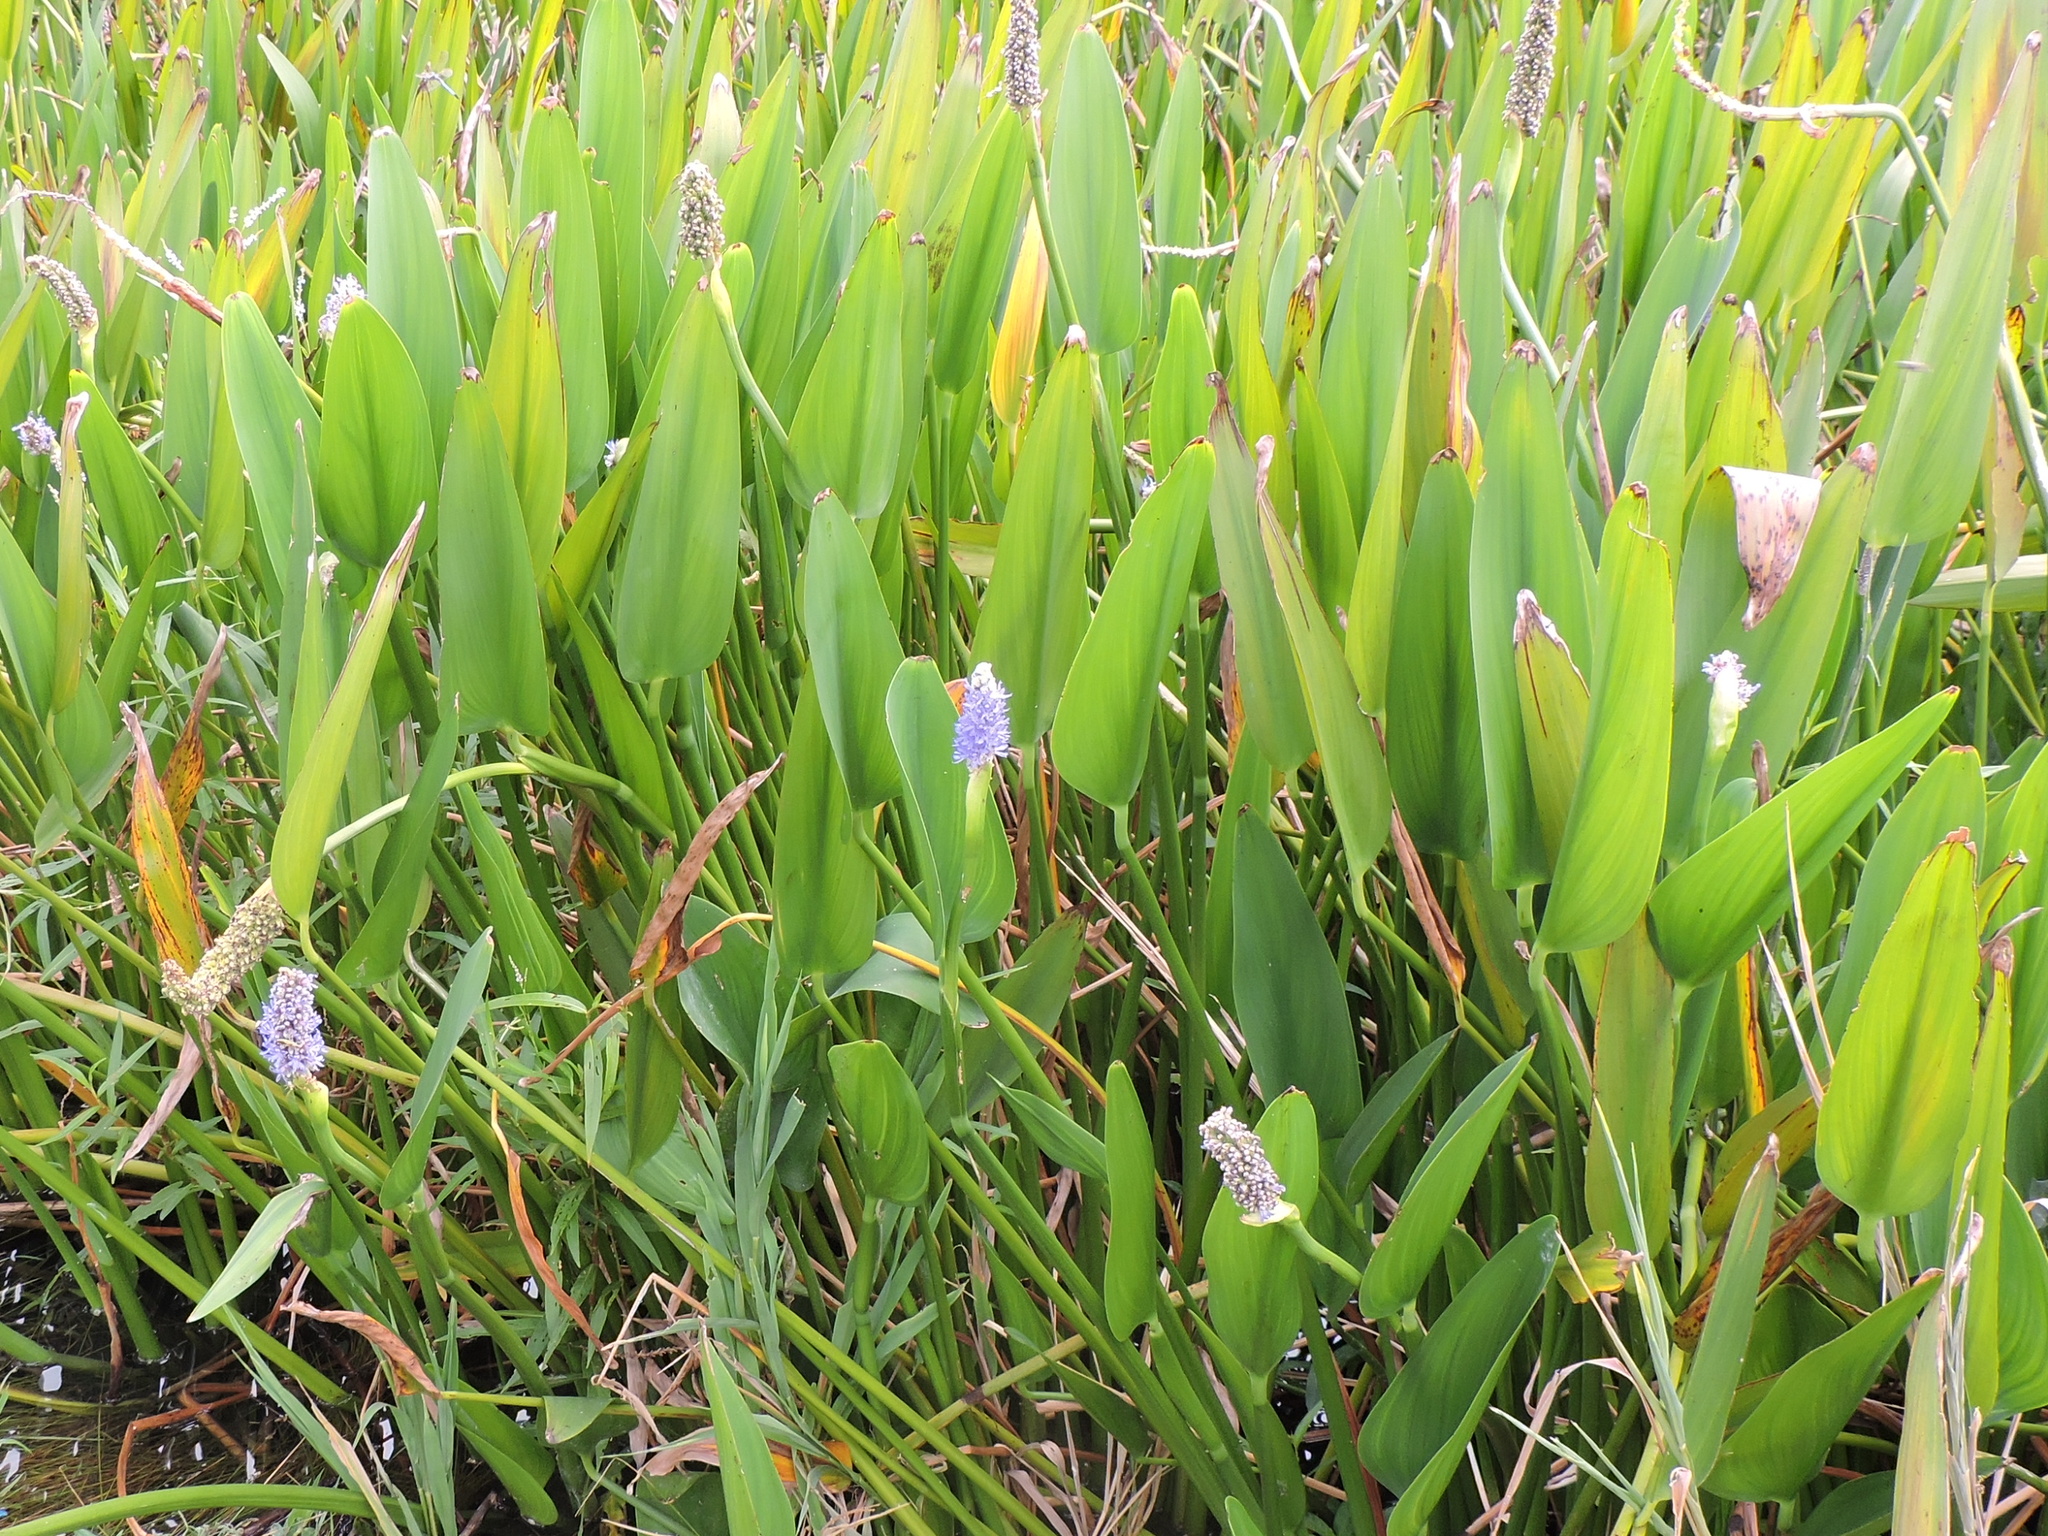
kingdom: Plantae
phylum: Tracheophyta
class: Liliopsida
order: Commelinales
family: Pontederiaceae
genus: Pontederia
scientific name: Pontederia cordata
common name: Pickerelweed
